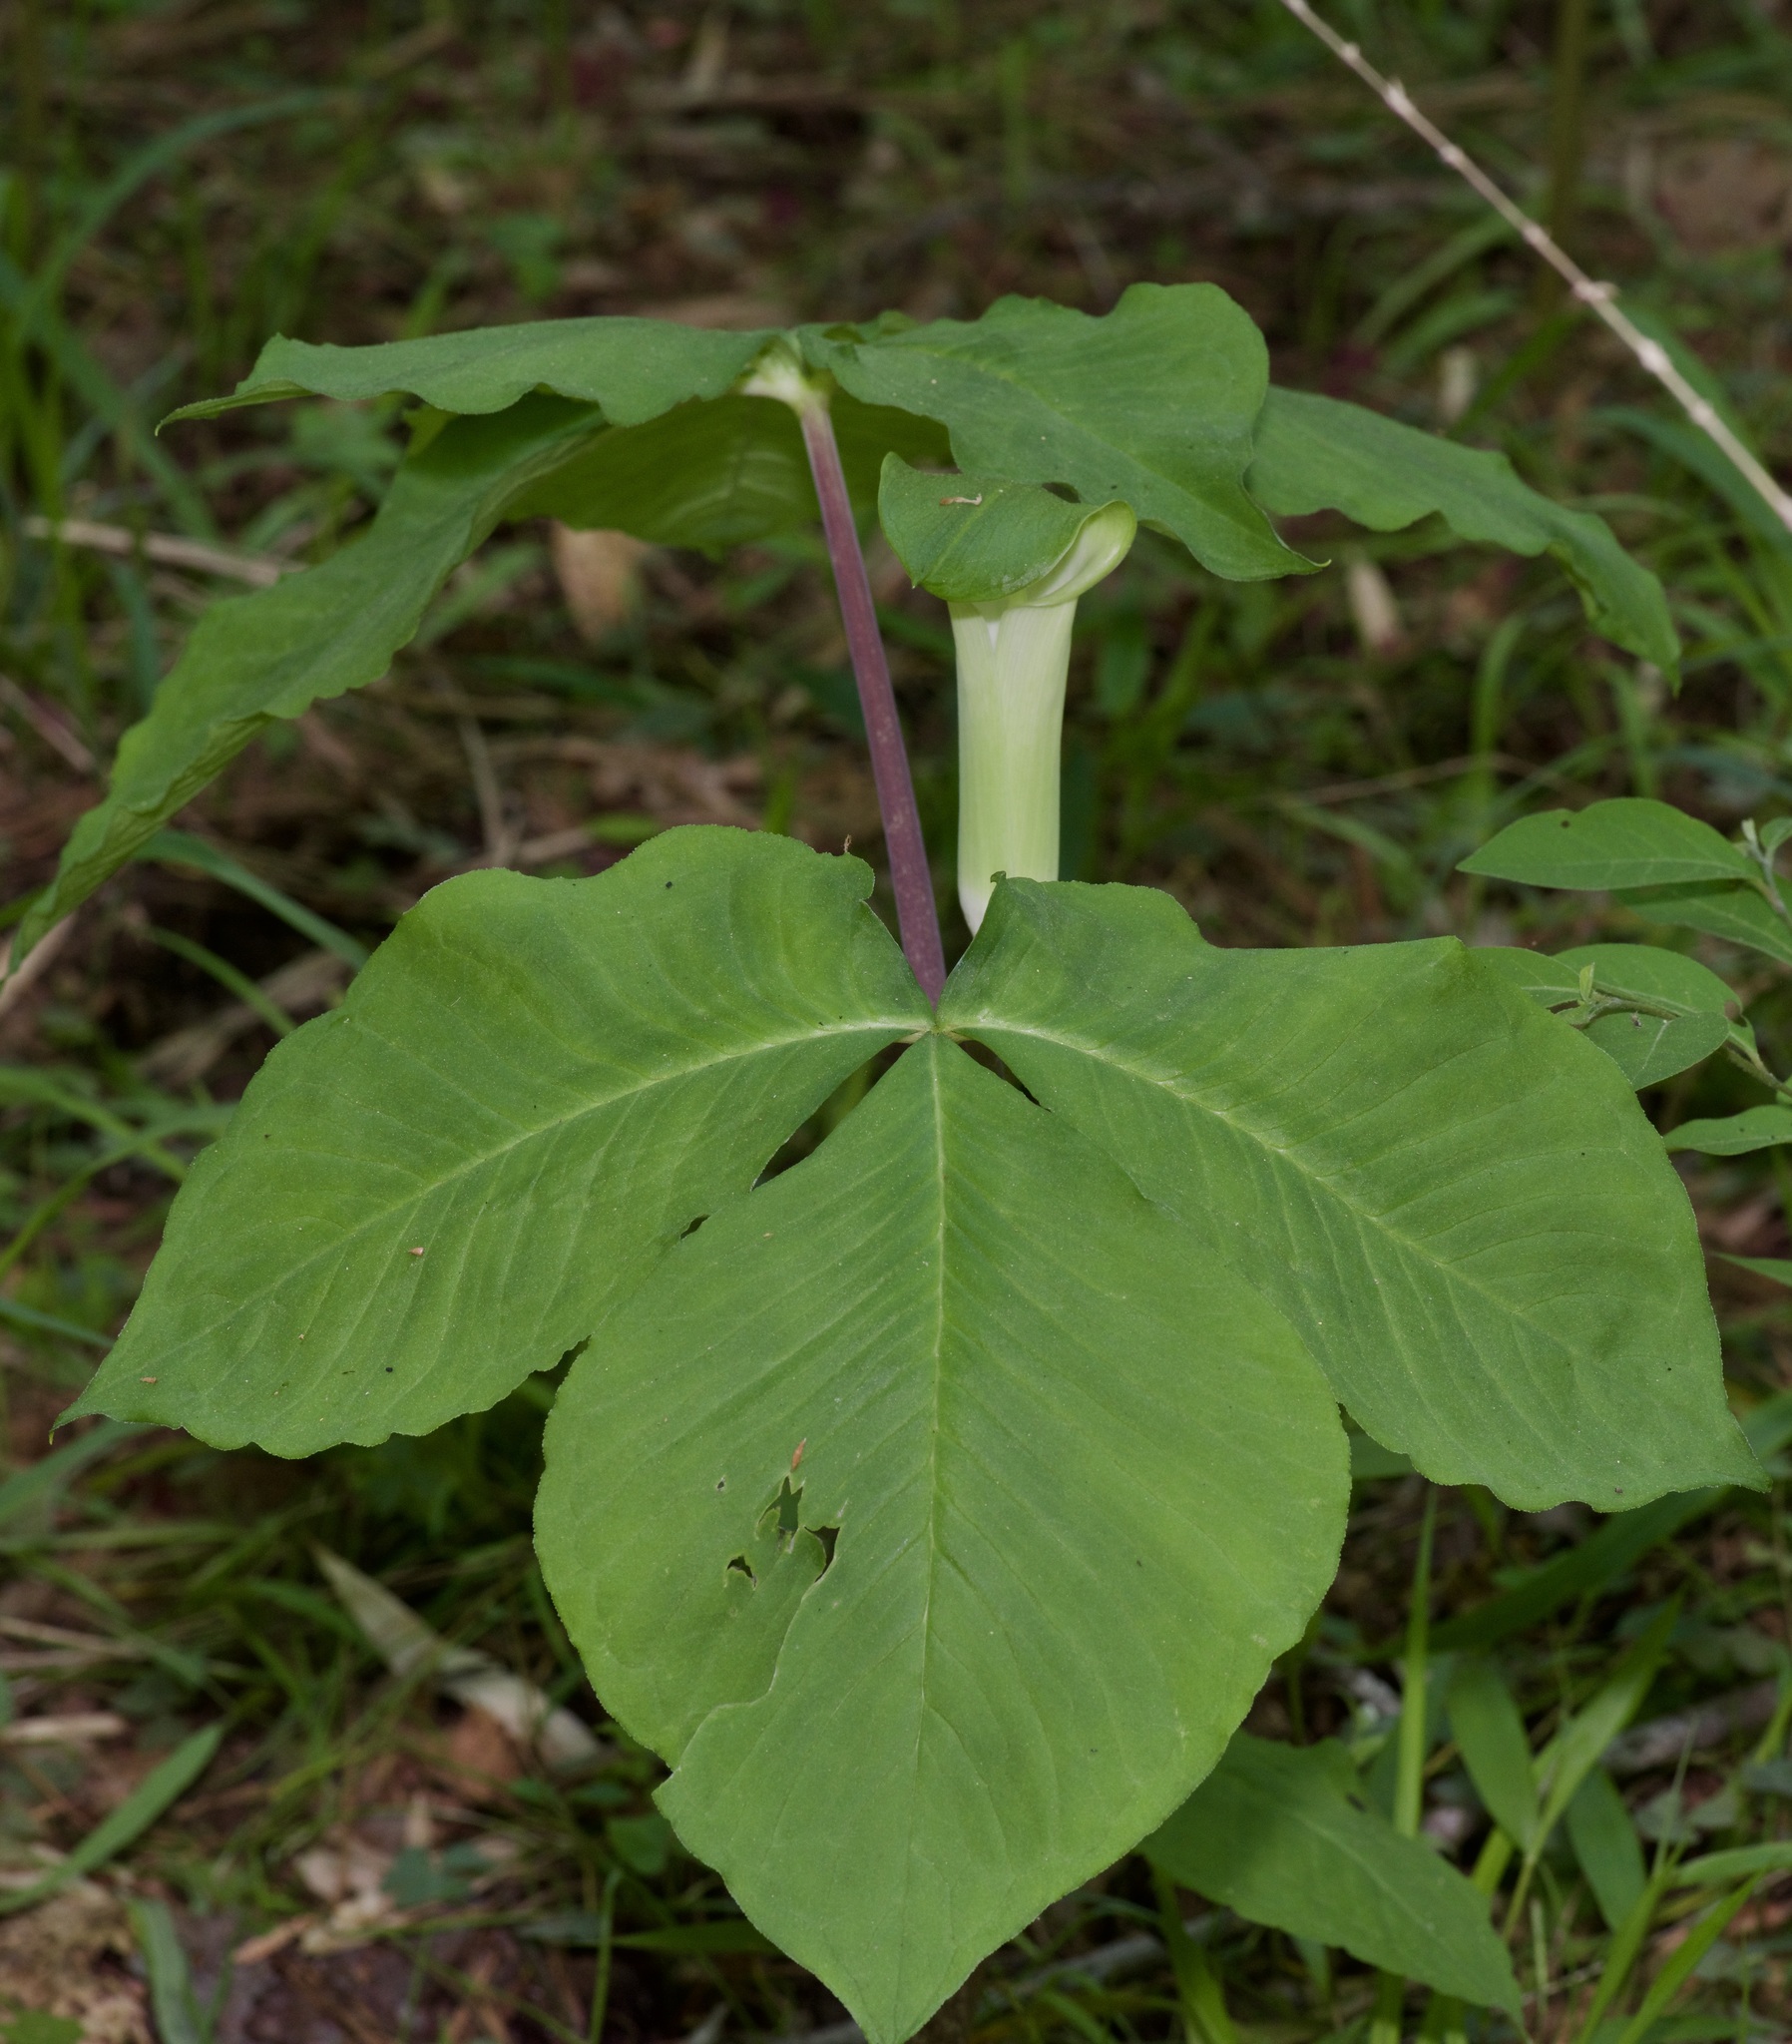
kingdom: Plantae
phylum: Tracheophyta
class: Liliopsida
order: Alismatales
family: Araceae
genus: Arisaema
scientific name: Arisaema triphyllum
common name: Jack-in-the-pulpit
